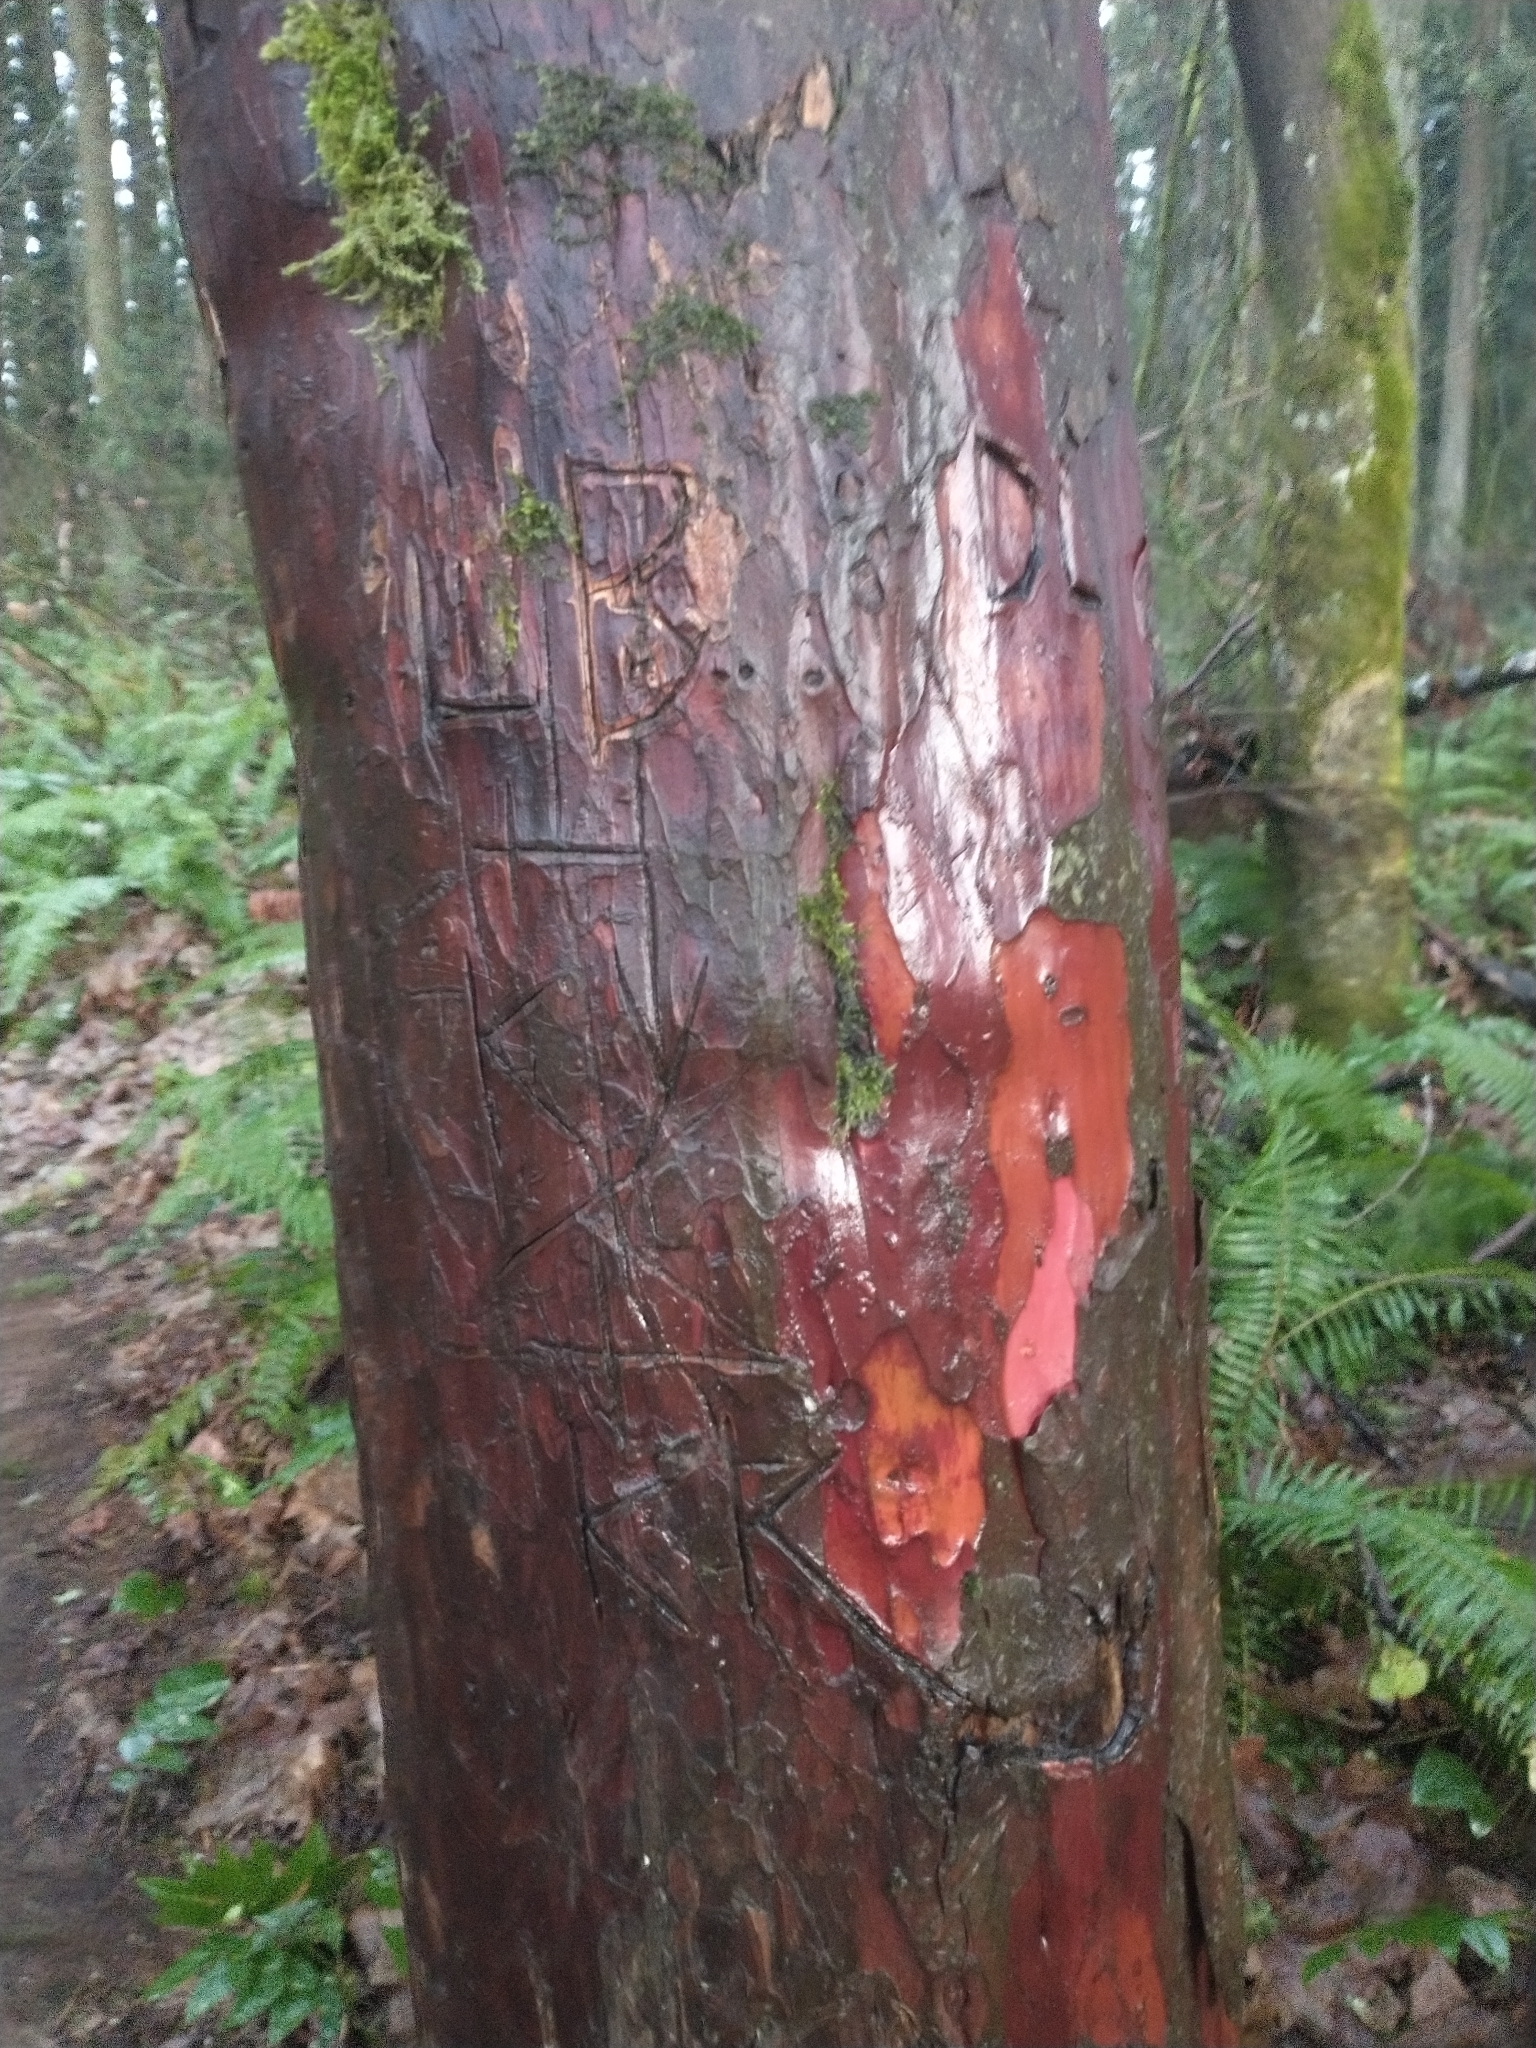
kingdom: Plantae
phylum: Tracheophyta
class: Pinopsida
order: Pinales
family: Taxaceae
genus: Taxus
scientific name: Taxus brevifolia
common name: Pacific yew
